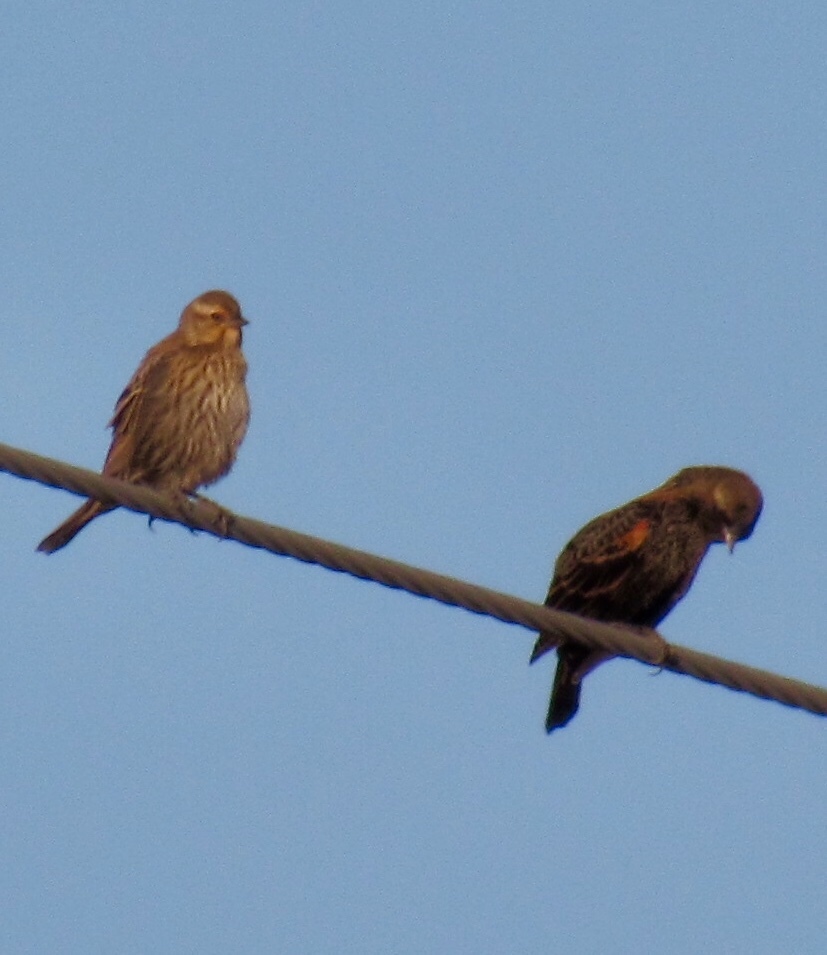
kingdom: Animalia
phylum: Chordata
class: Aves
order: Passeriformes
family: Icteridae
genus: Agelaius
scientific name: Agelaius phoeniceus
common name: Red-winged blackbird
